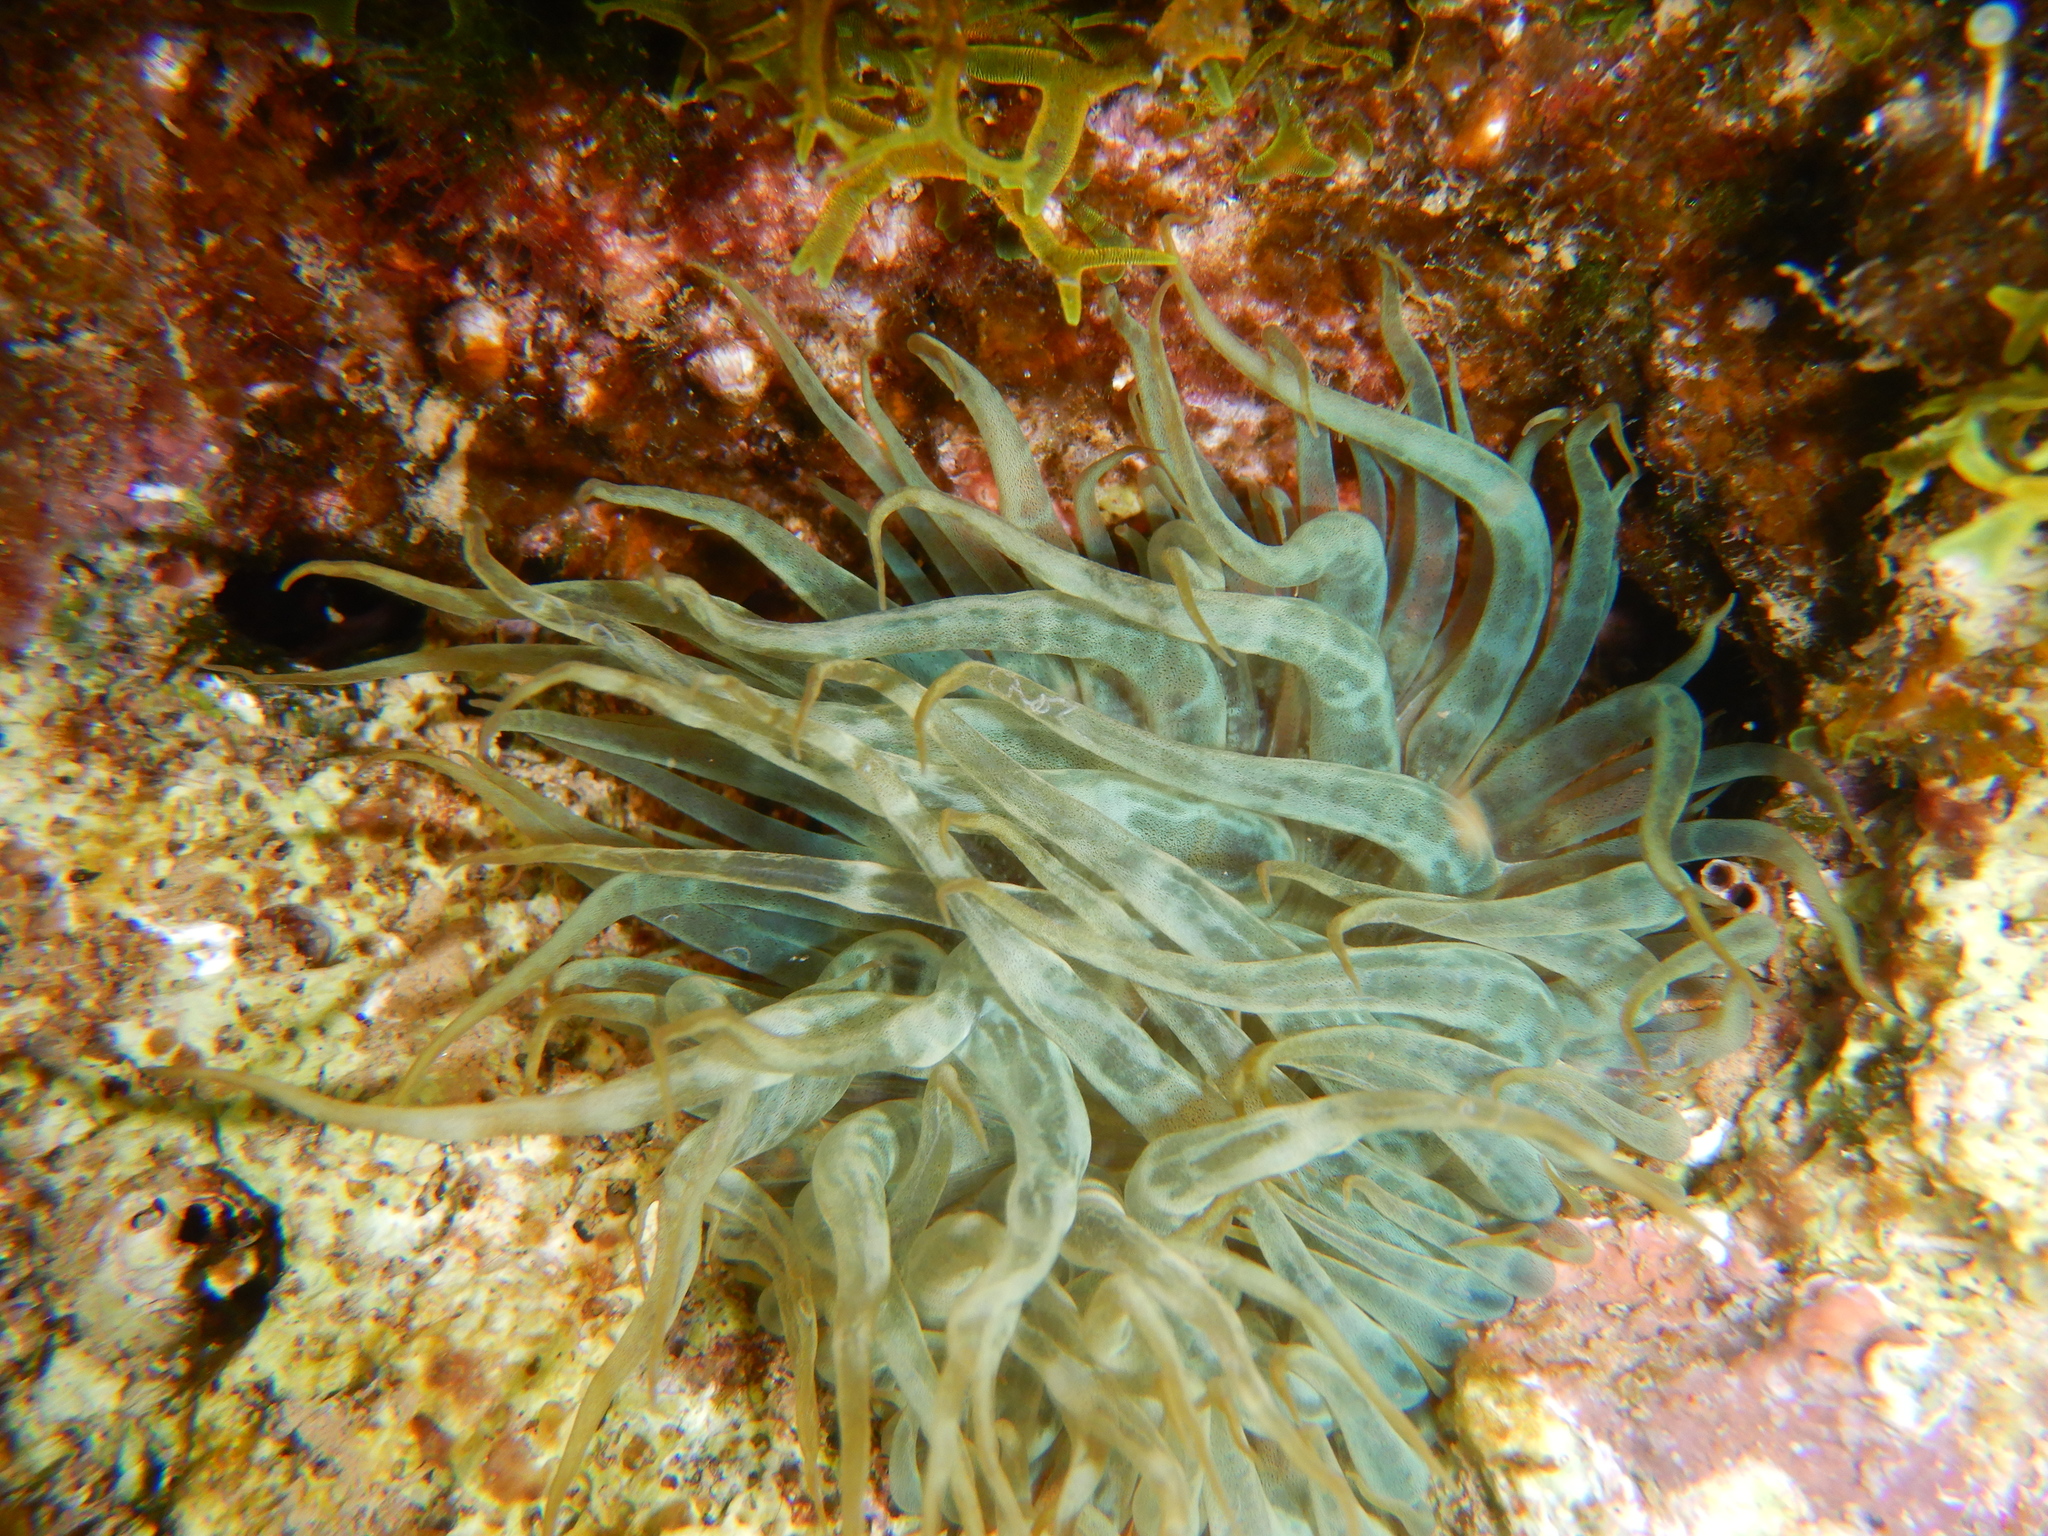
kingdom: Animalia
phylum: Cnidaria
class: Anthozoa
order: Actiniaria
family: Aiptasiidae
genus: Aiptasia
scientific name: Aiptasia mutabilis
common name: Trumpet anemone
